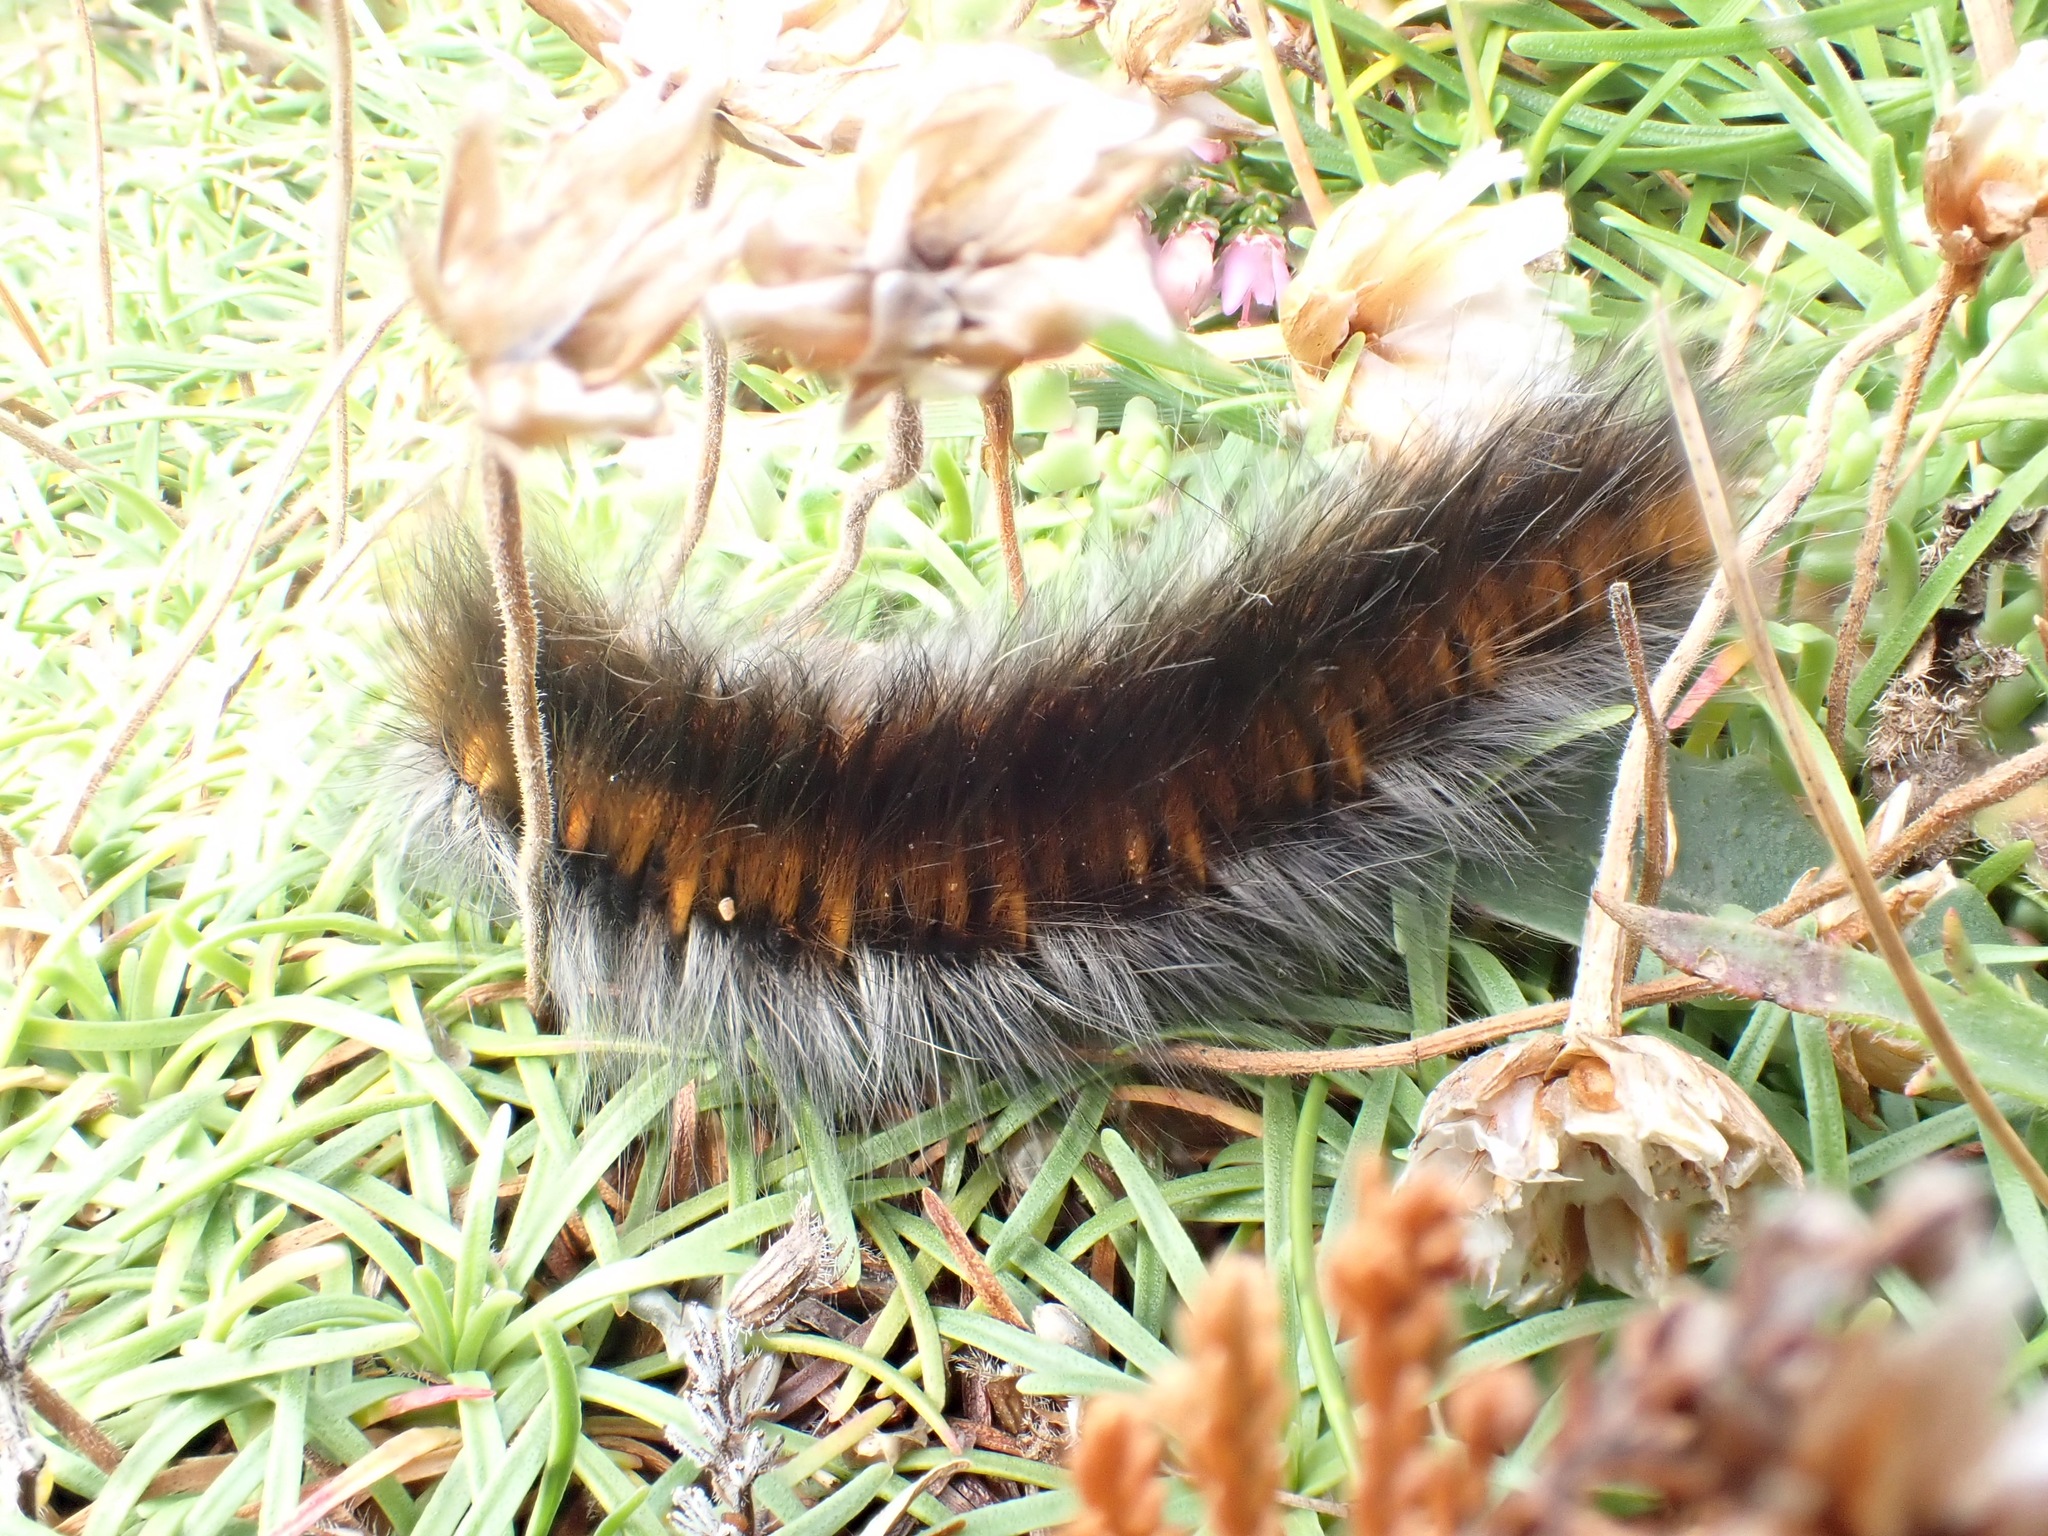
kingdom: Animalia
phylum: Arthropoda
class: Insecta
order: Lepidoptera
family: Lasiocampidae
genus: Macrothylacia
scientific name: Macrothylacia rubi
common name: Fox moth
